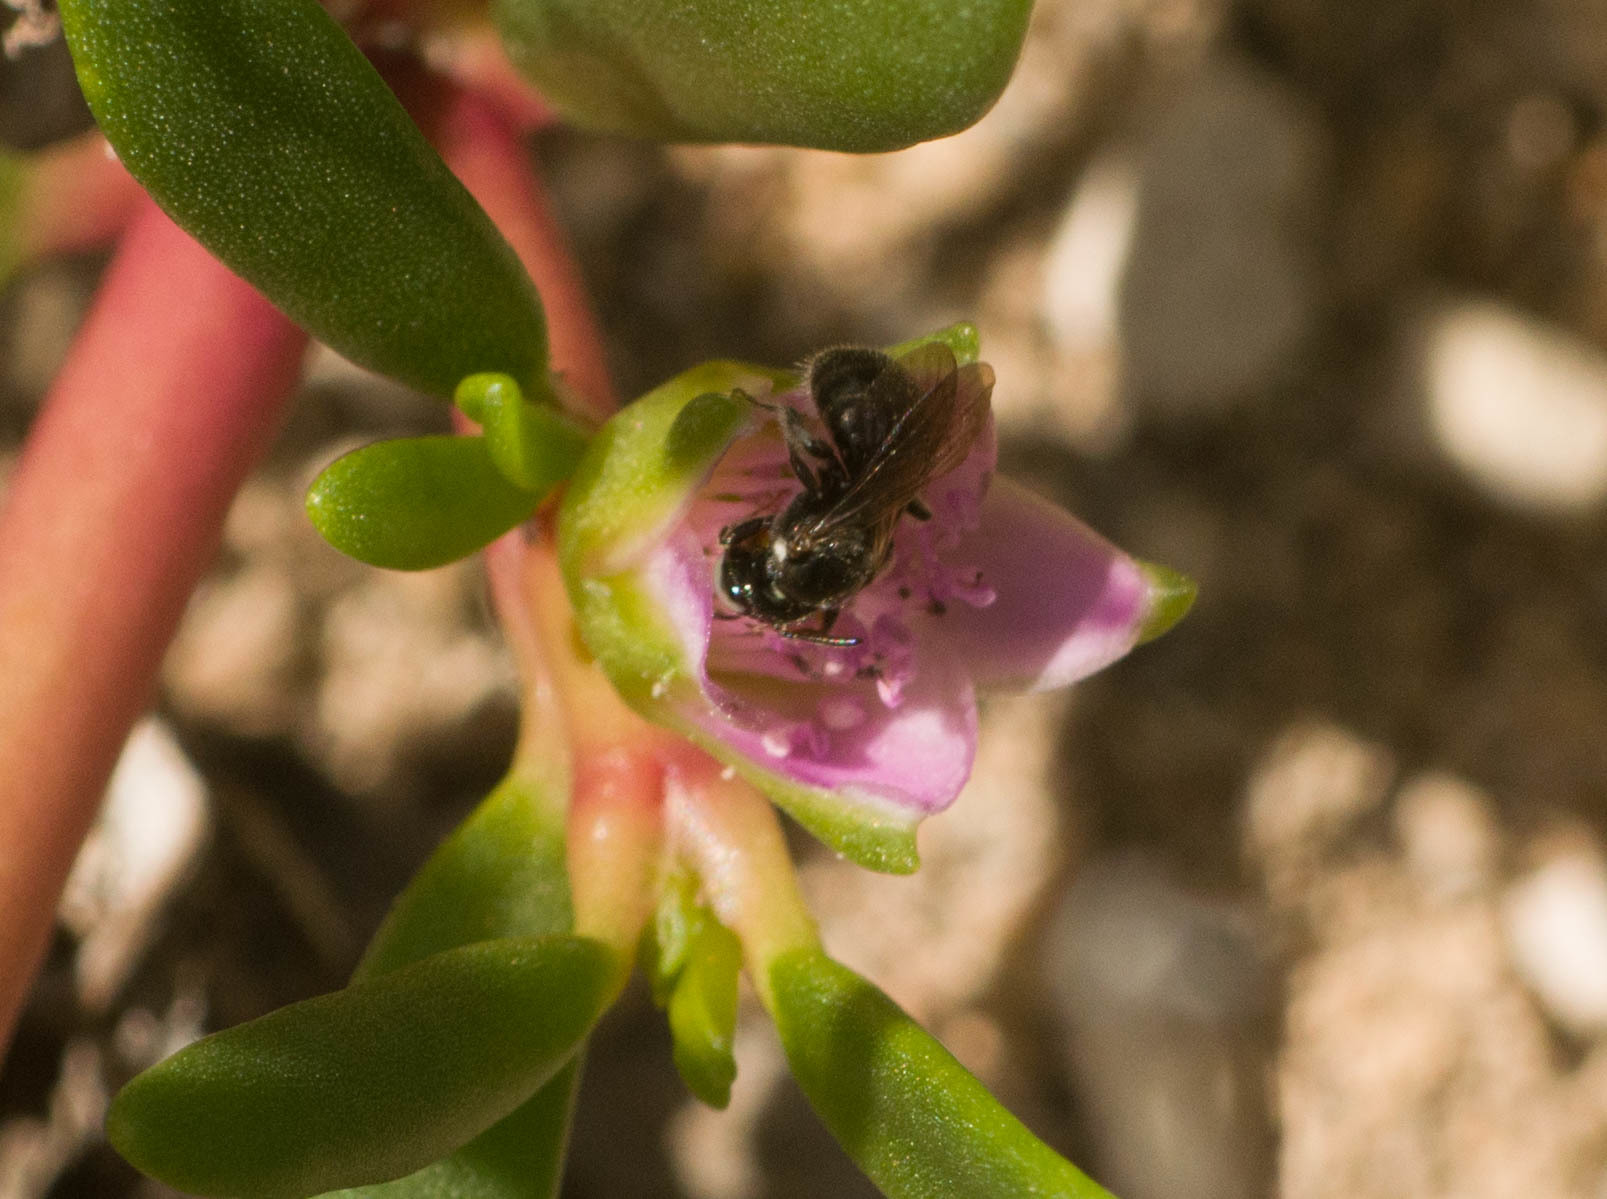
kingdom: Animalia
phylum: Arthropoda
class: Insecta
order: Hymenoptera
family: Apidae
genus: Ceratina
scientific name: Ceratina dentipes
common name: Small carpenter bee
